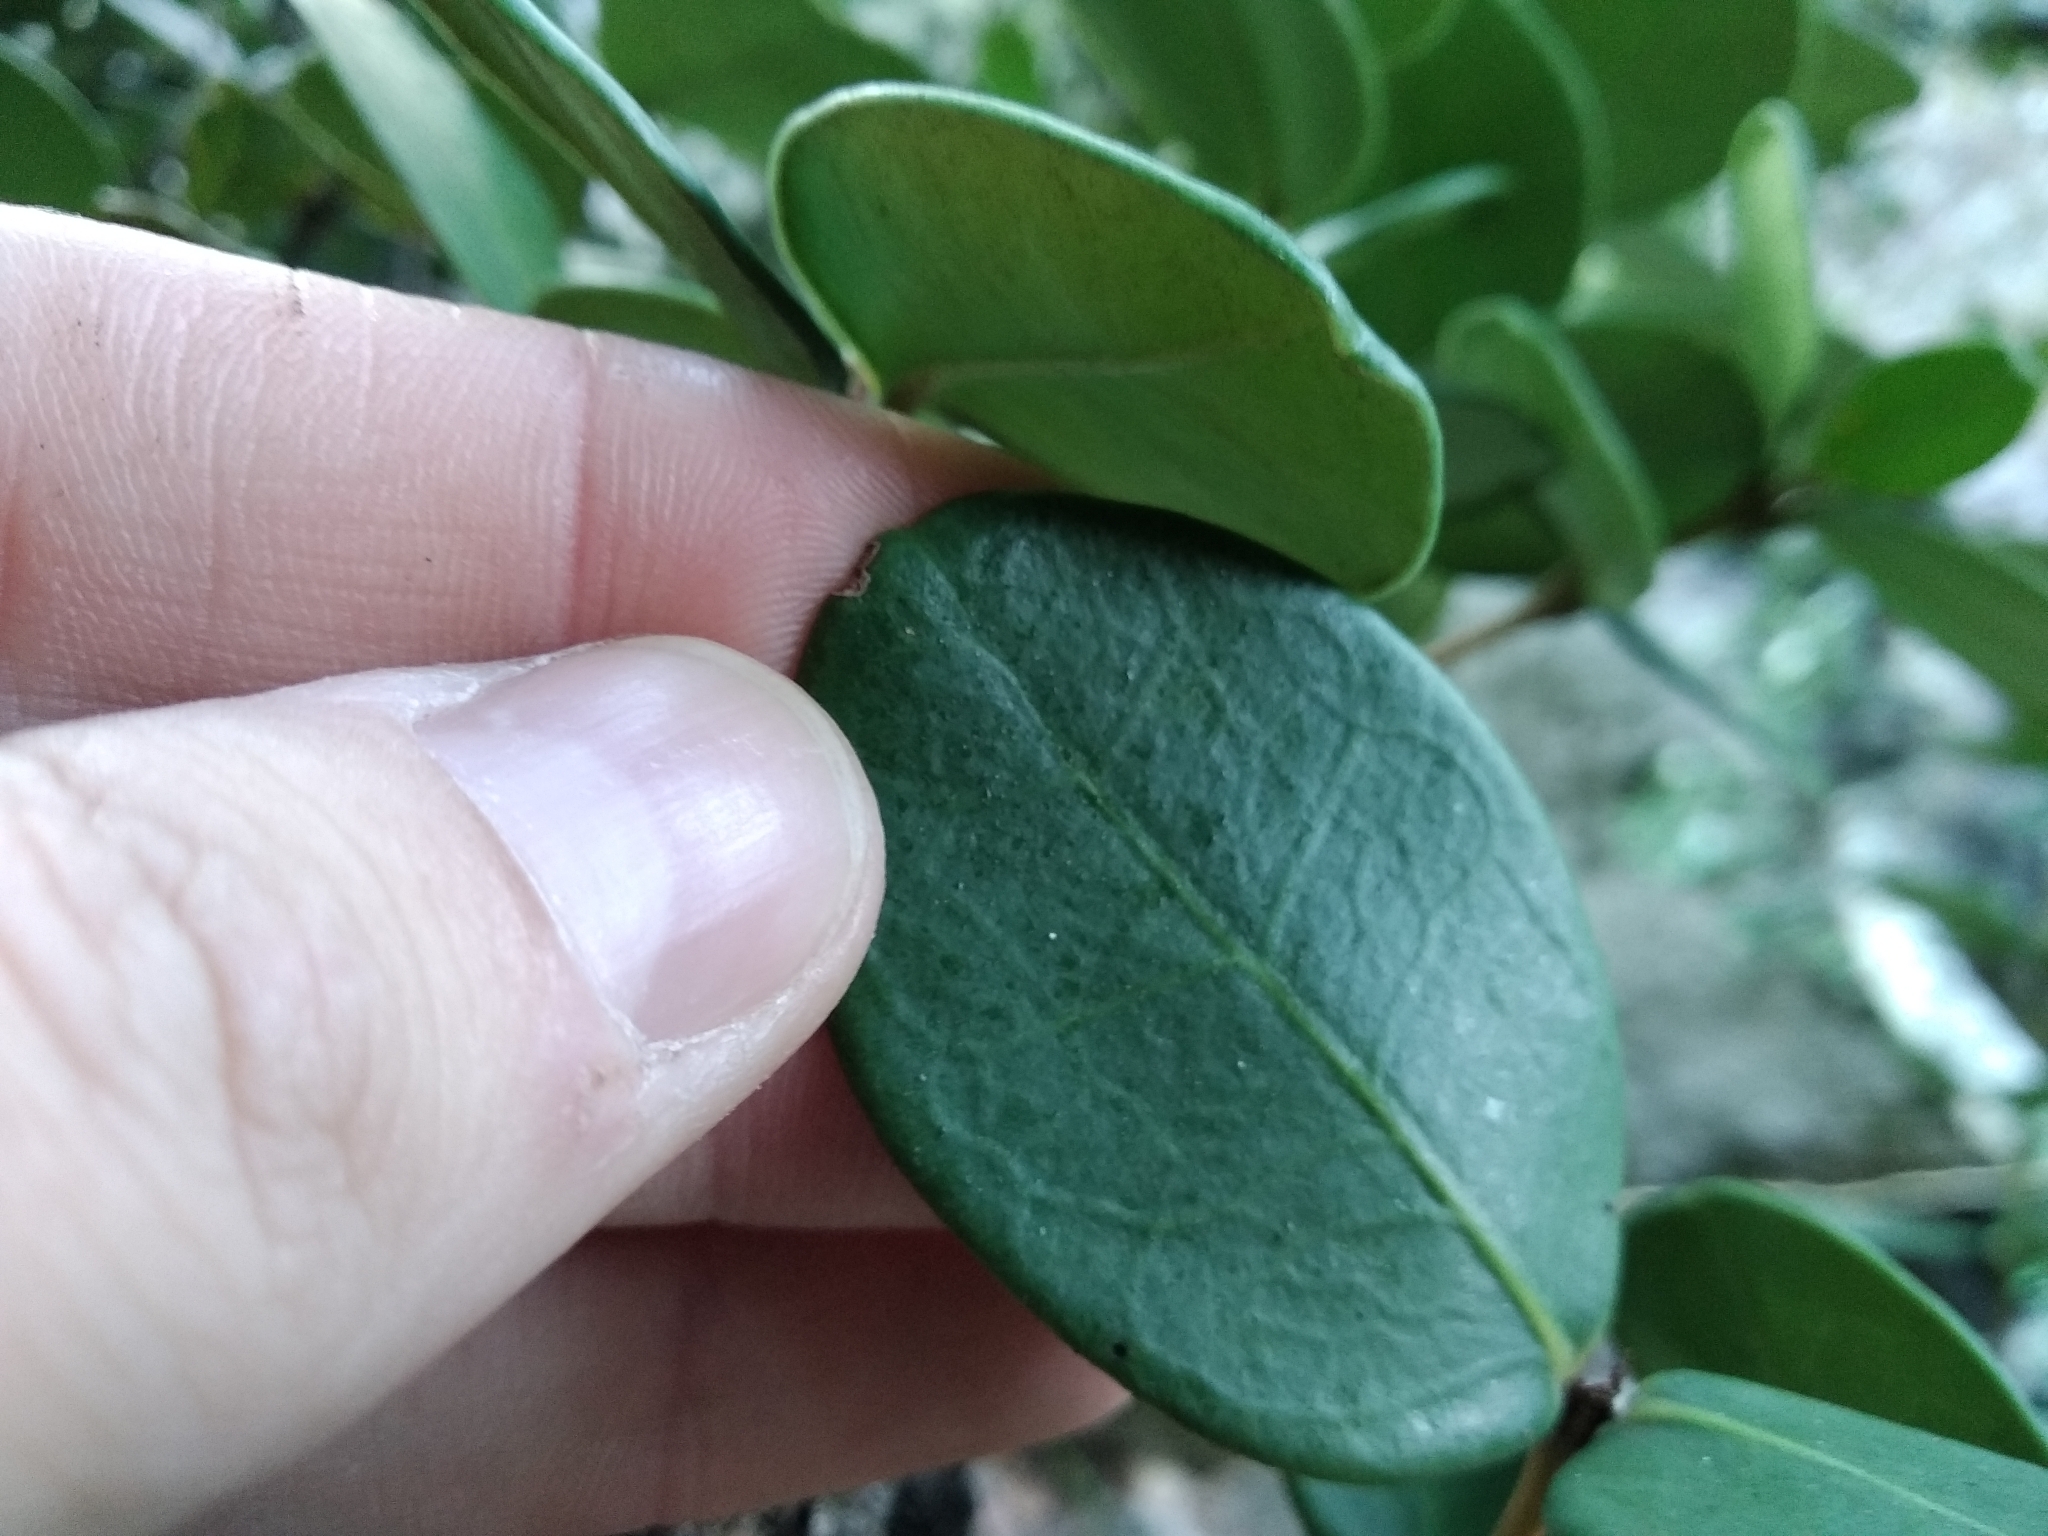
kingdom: Plantae
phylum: Tracheophyta
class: Magnoliopsida
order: Celastrales
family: Celastraceae
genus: Maurocenia
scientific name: Maurocenia frangula
